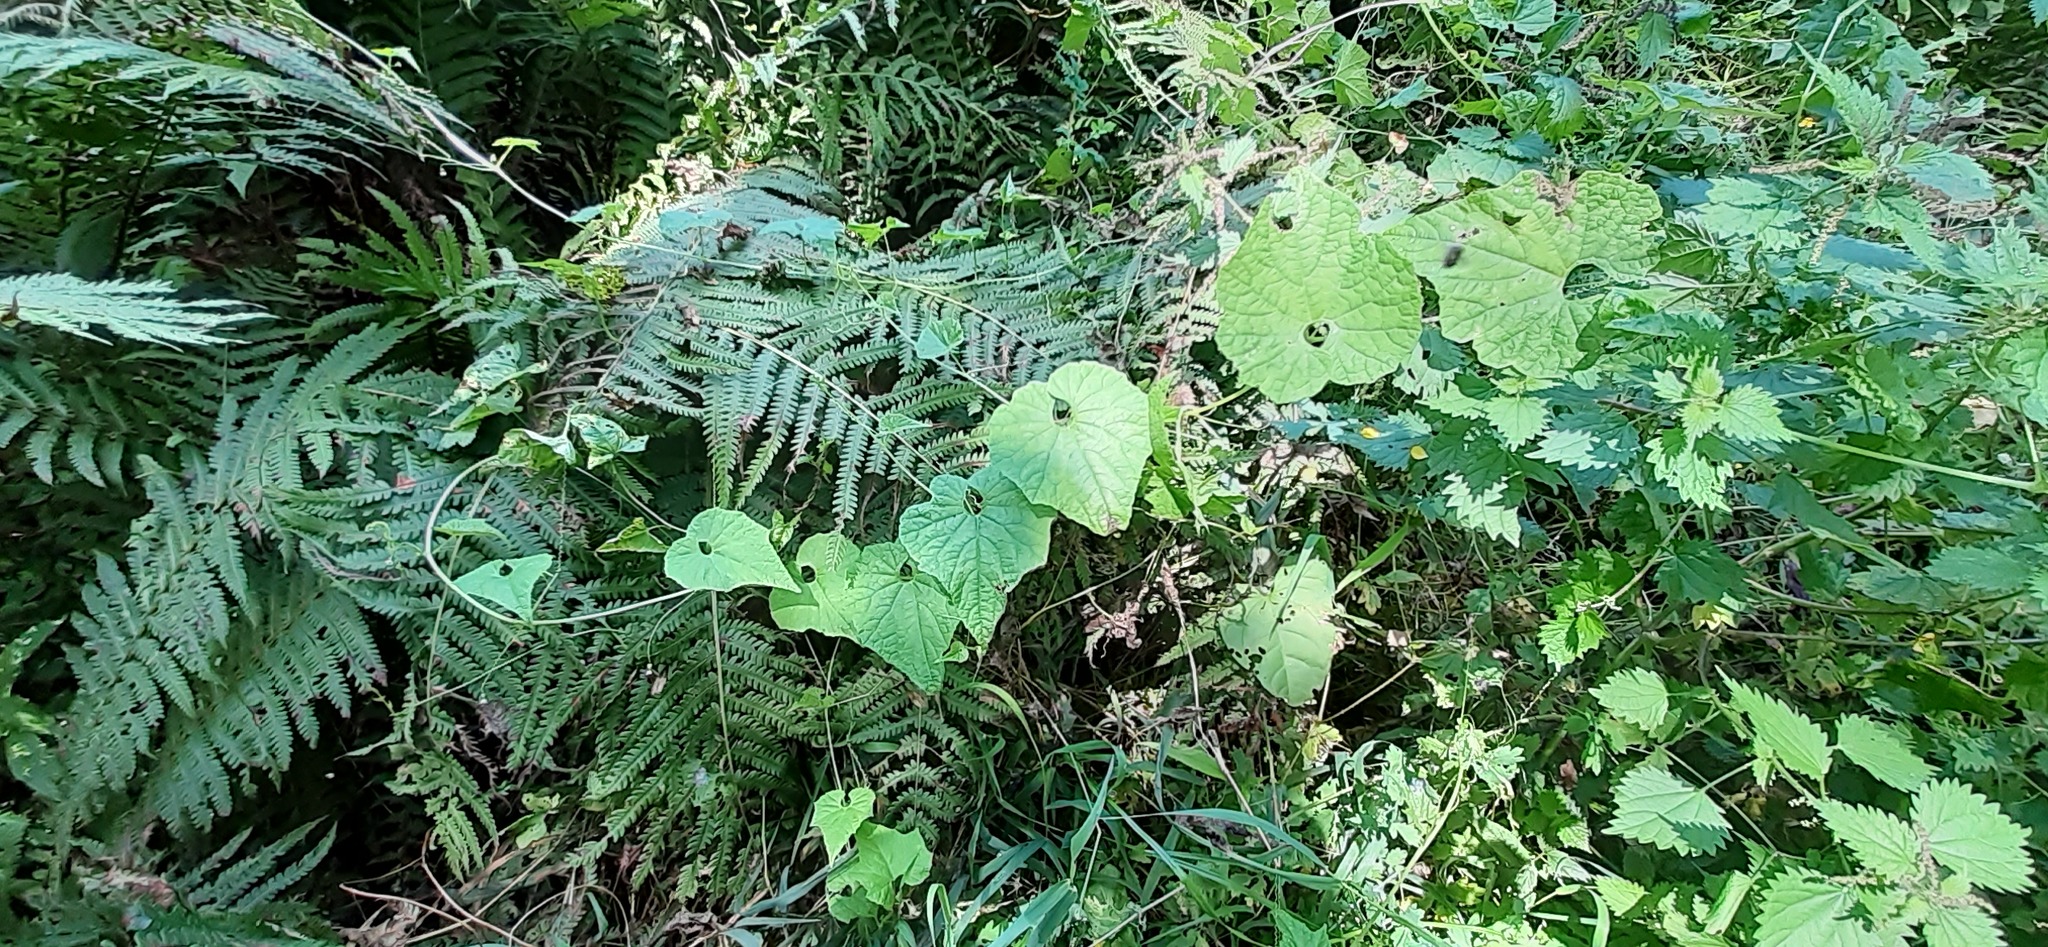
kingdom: Plantae
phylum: Tracheophyta
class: Magnoliopsida
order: Cucurbitales
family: Cucurbitaceae
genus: Schizopepon
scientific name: Schizopepon bryoniifolius
